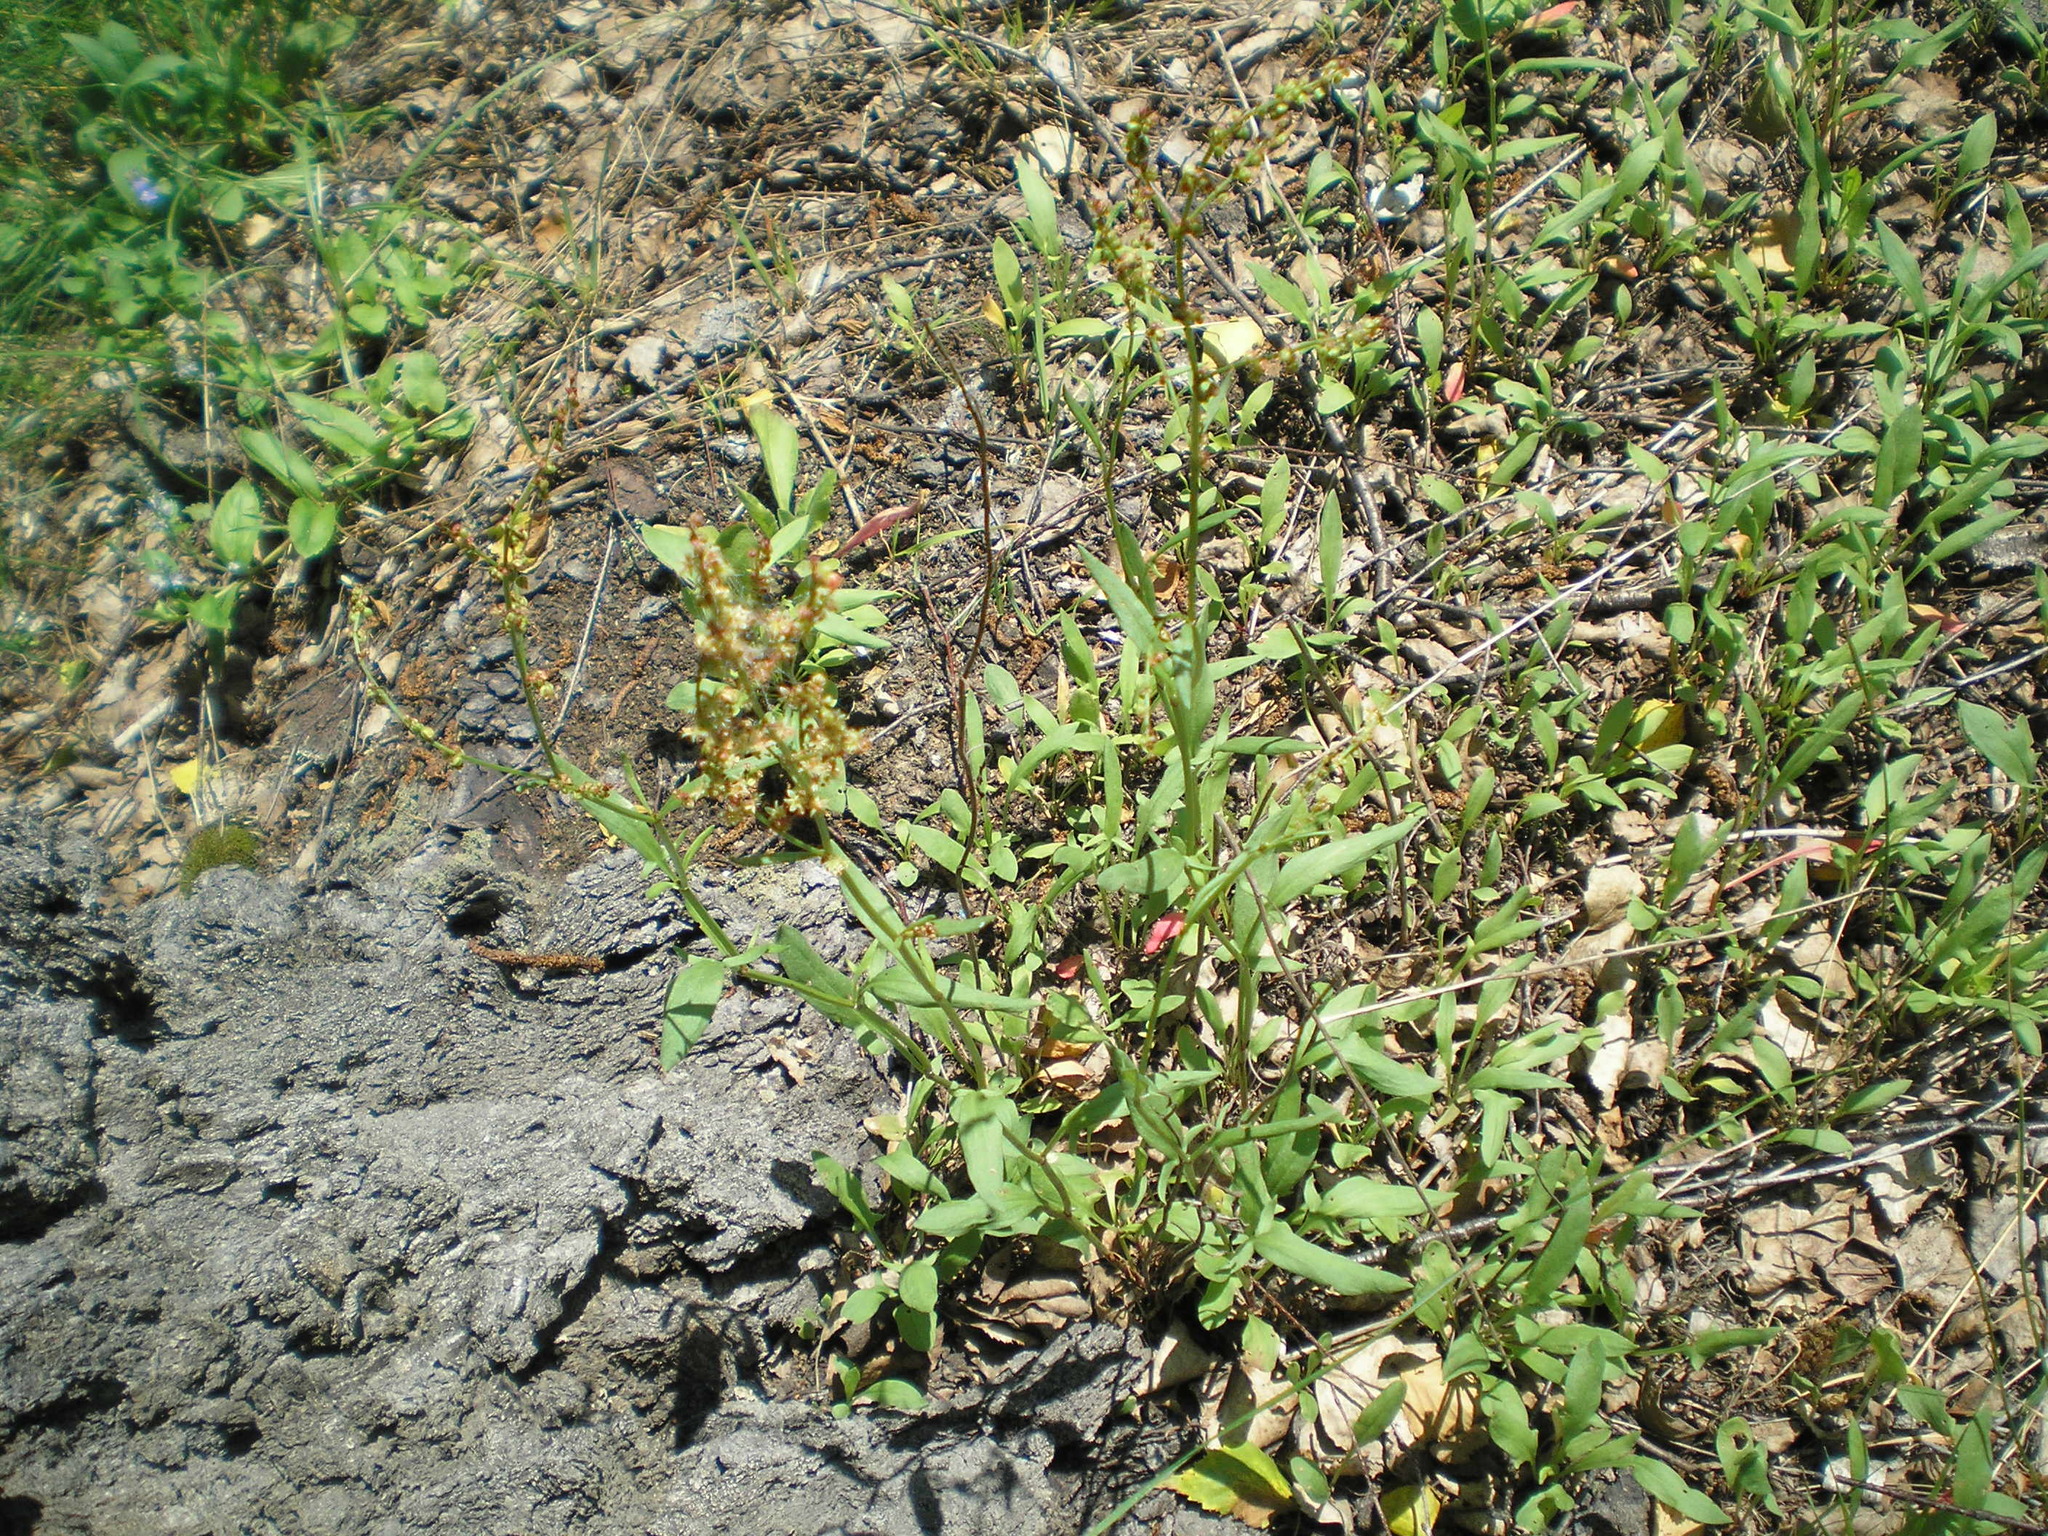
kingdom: Plantae
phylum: Tracheophyta
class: Magnoliopsida
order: Caryophyllales
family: Polygonaceae
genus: Rumex
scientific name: Rumex acetosella
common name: Common sheep sorrel
